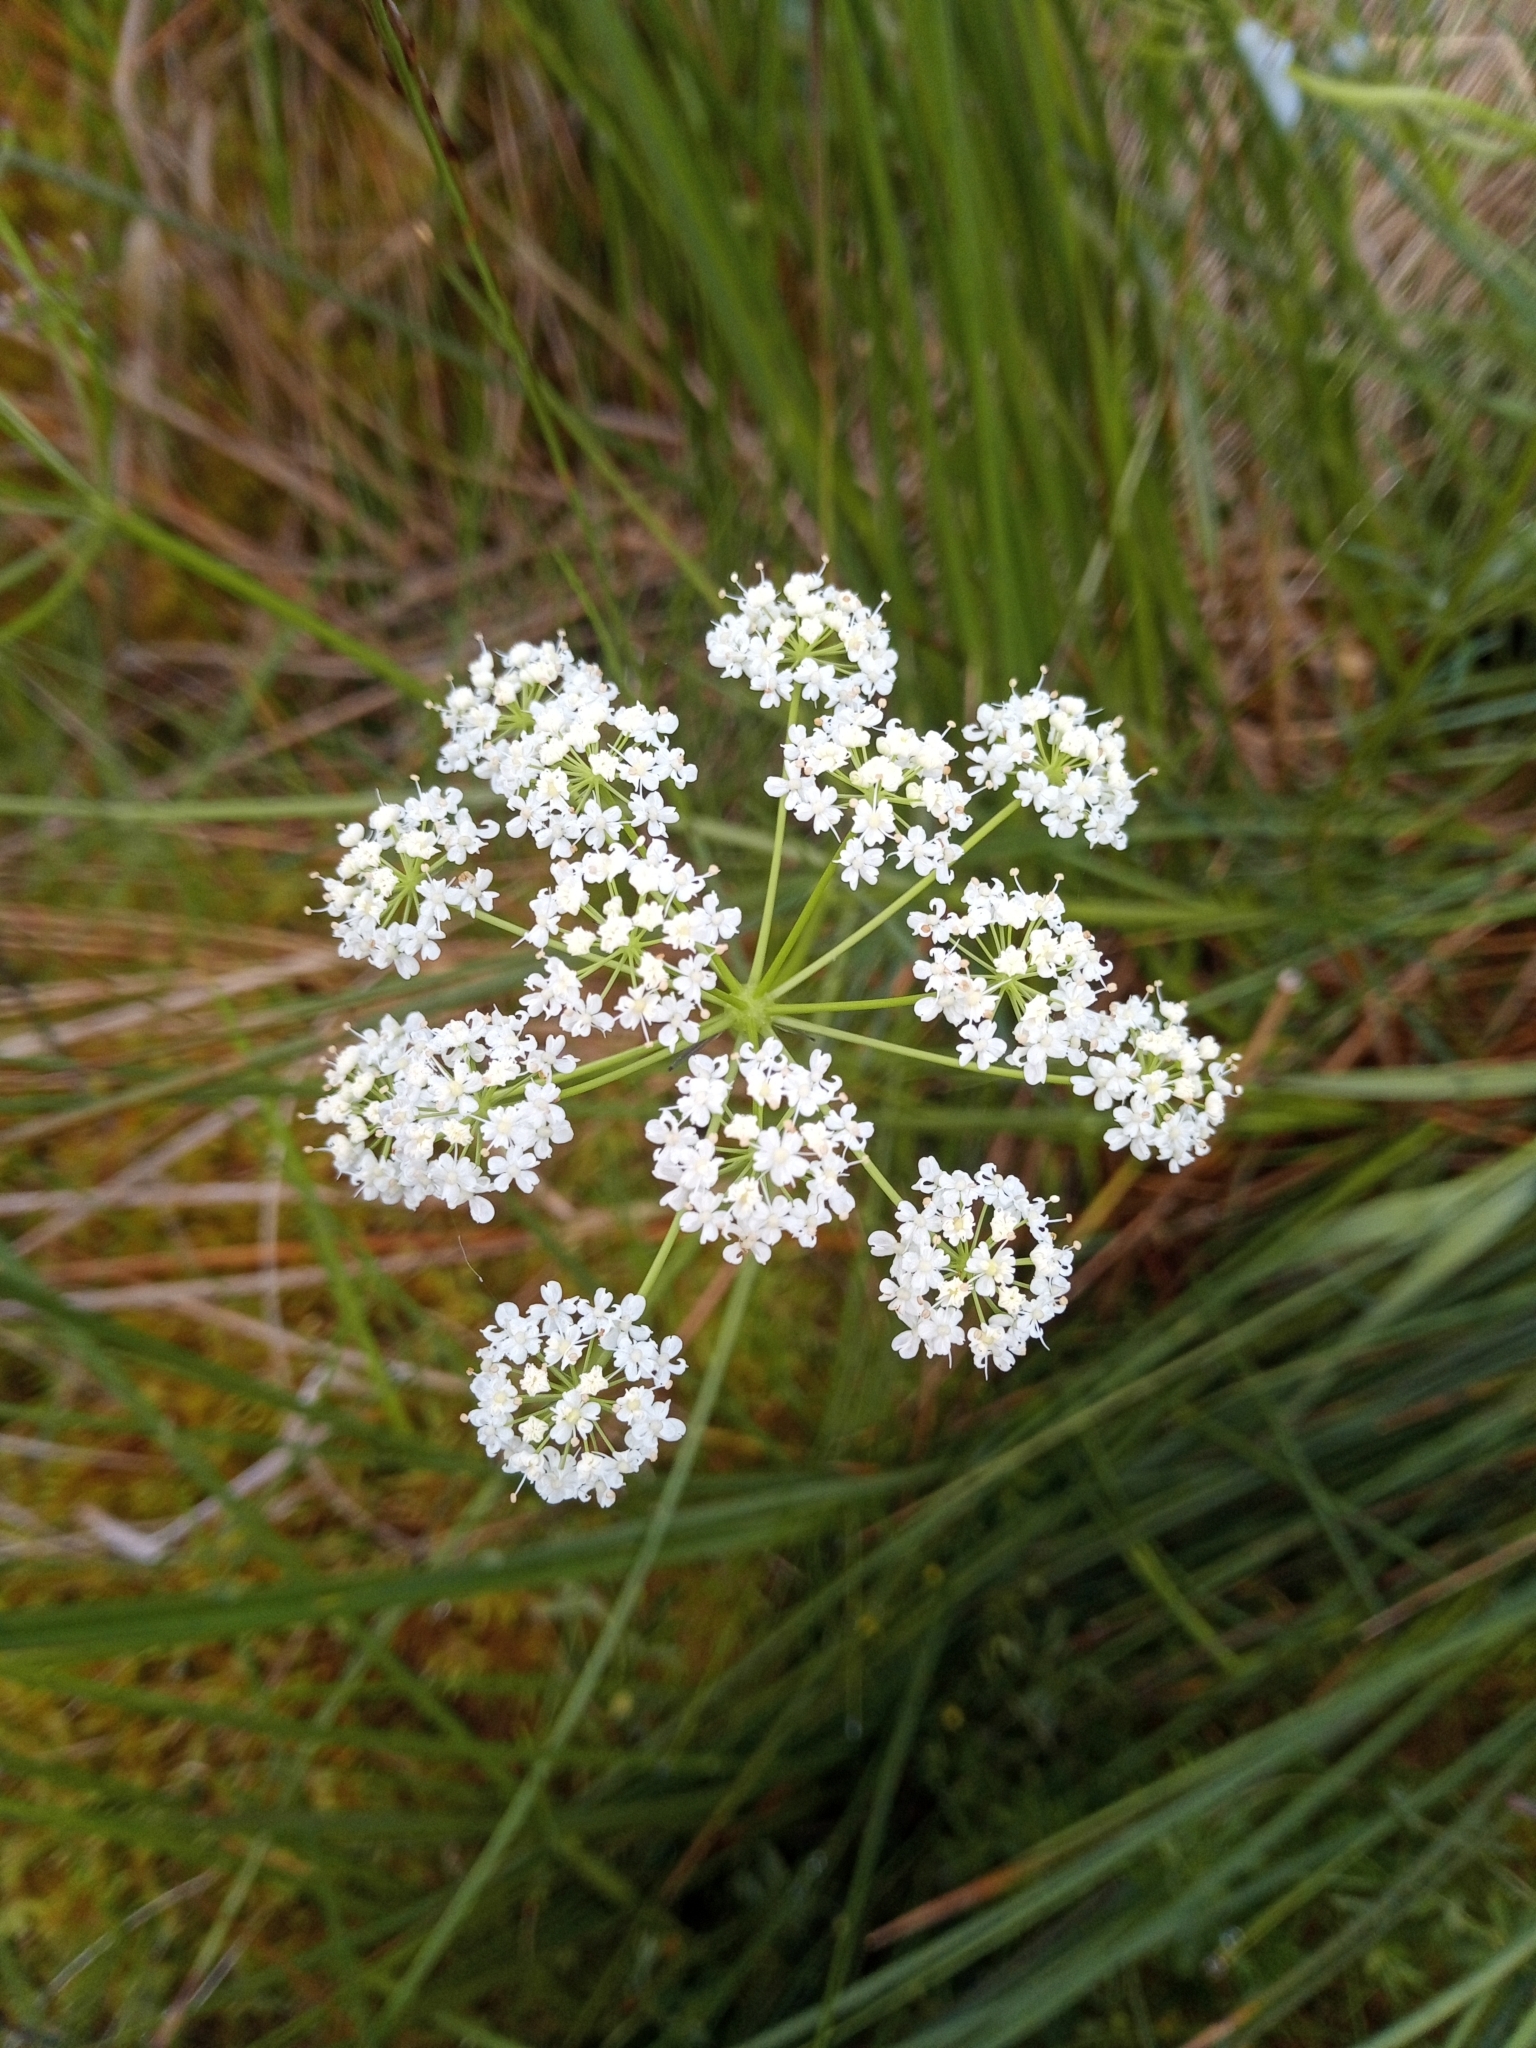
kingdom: Plantae
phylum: Tracheophyta
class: Magnoliopsida
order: Apiales
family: Apiaceae
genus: Conopodium
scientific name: Conopodium majus
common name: Pignut
